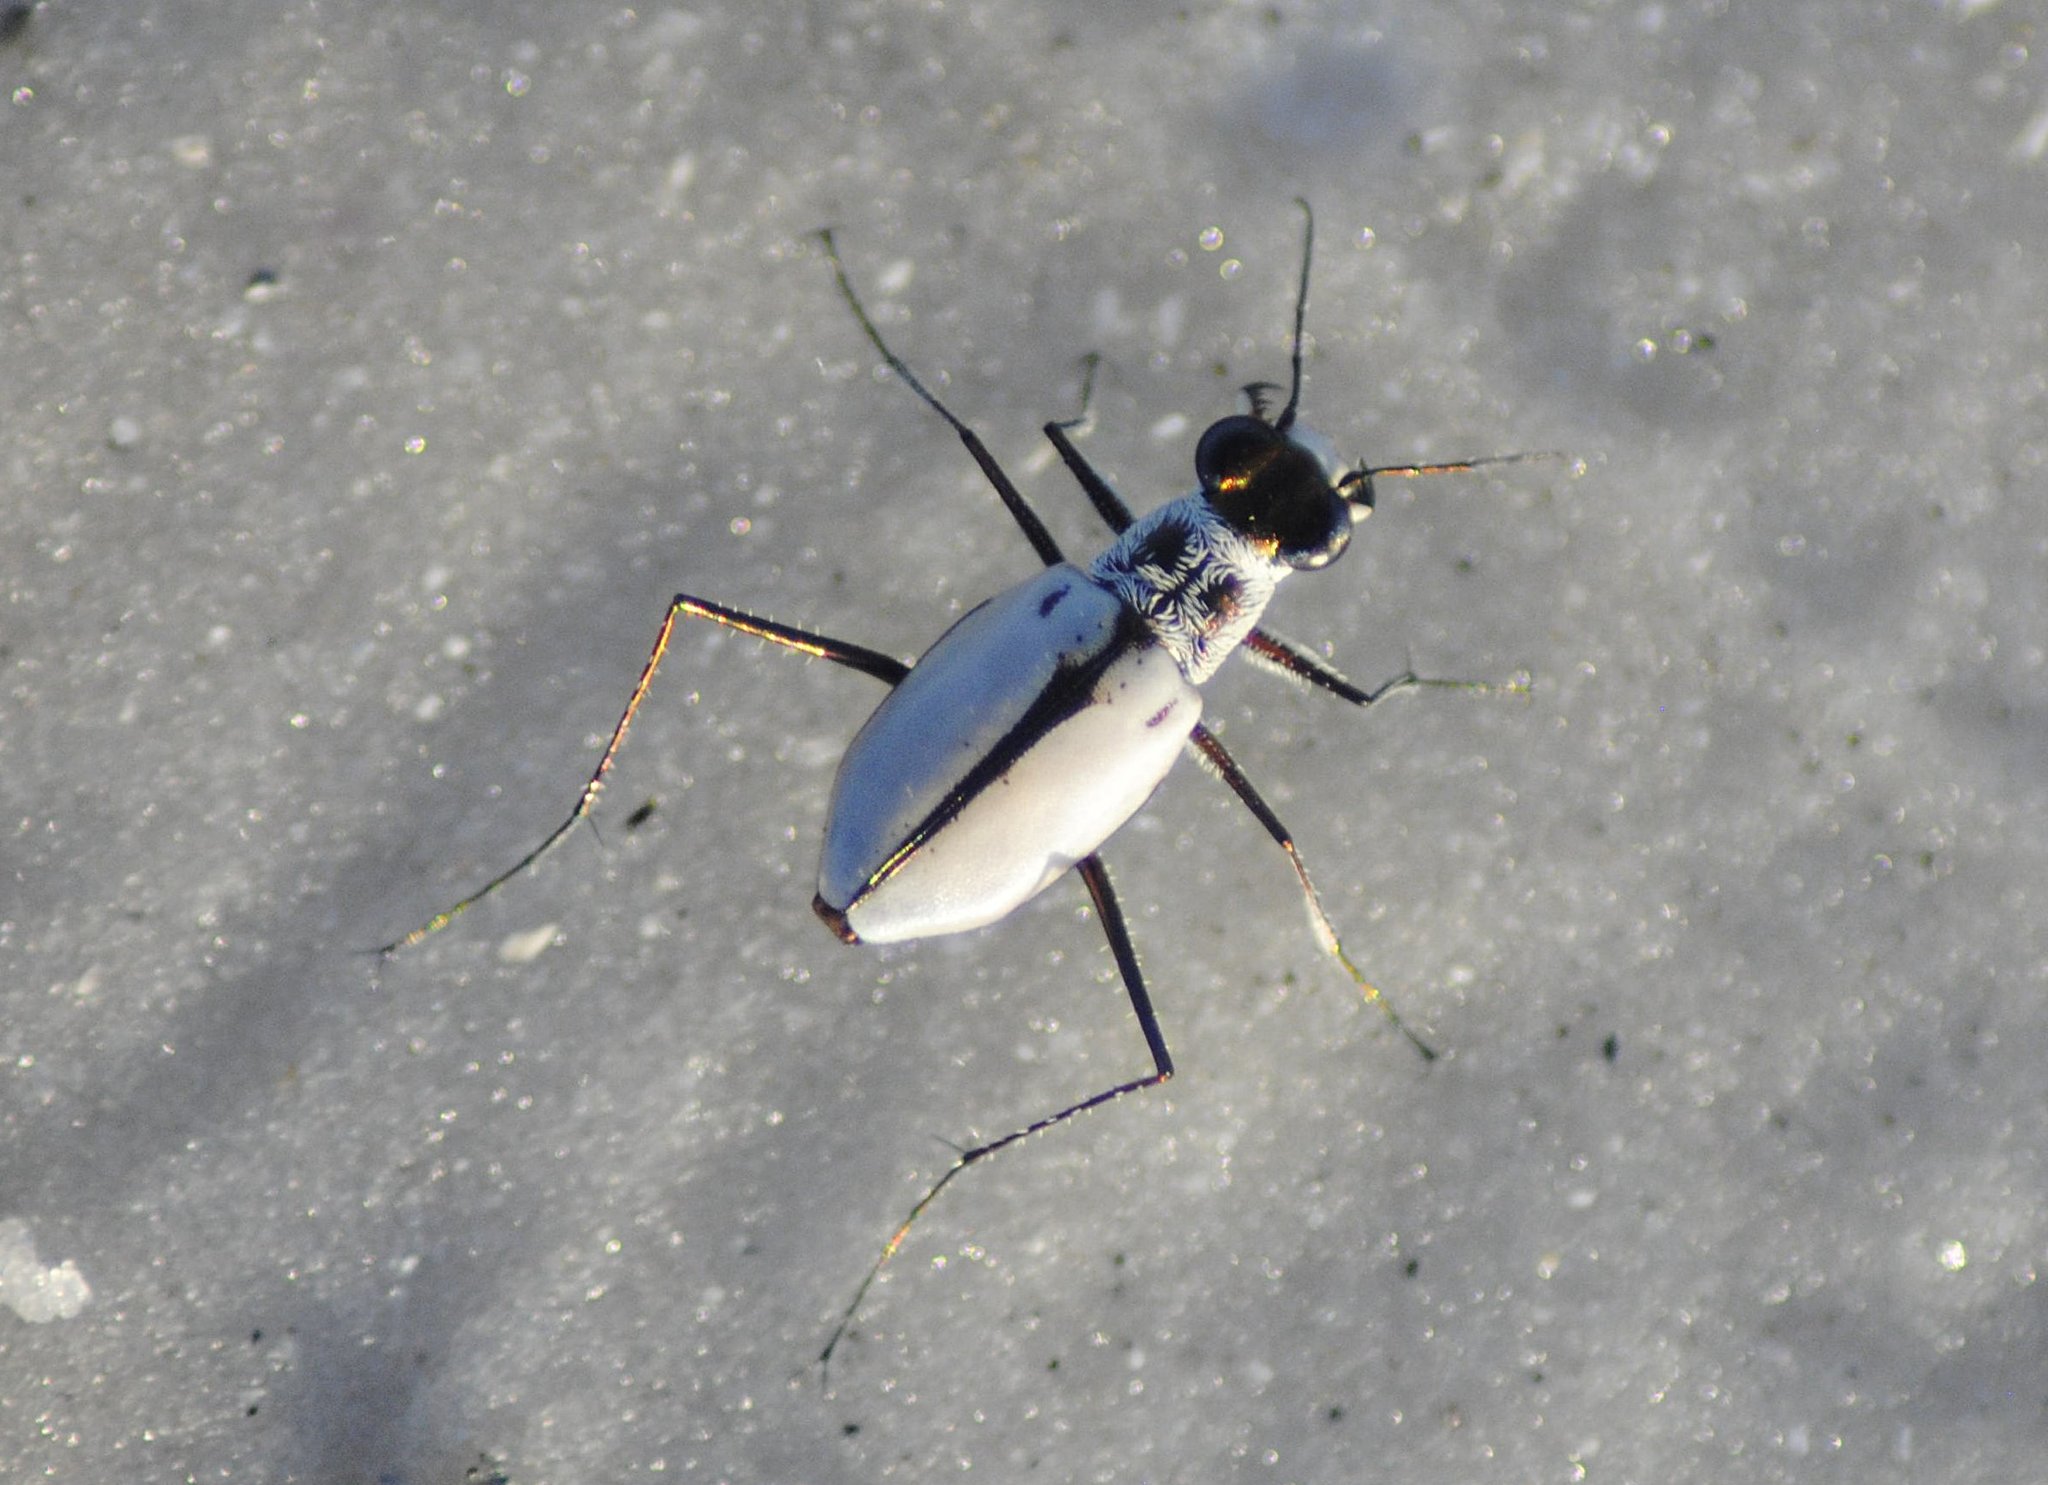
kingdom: Animalia
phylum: Arthropoda
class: Insecta
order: Coleoptera
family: Carabidae
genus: Habroscelimorpha
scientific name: Habroscelimorpha dorsalis
